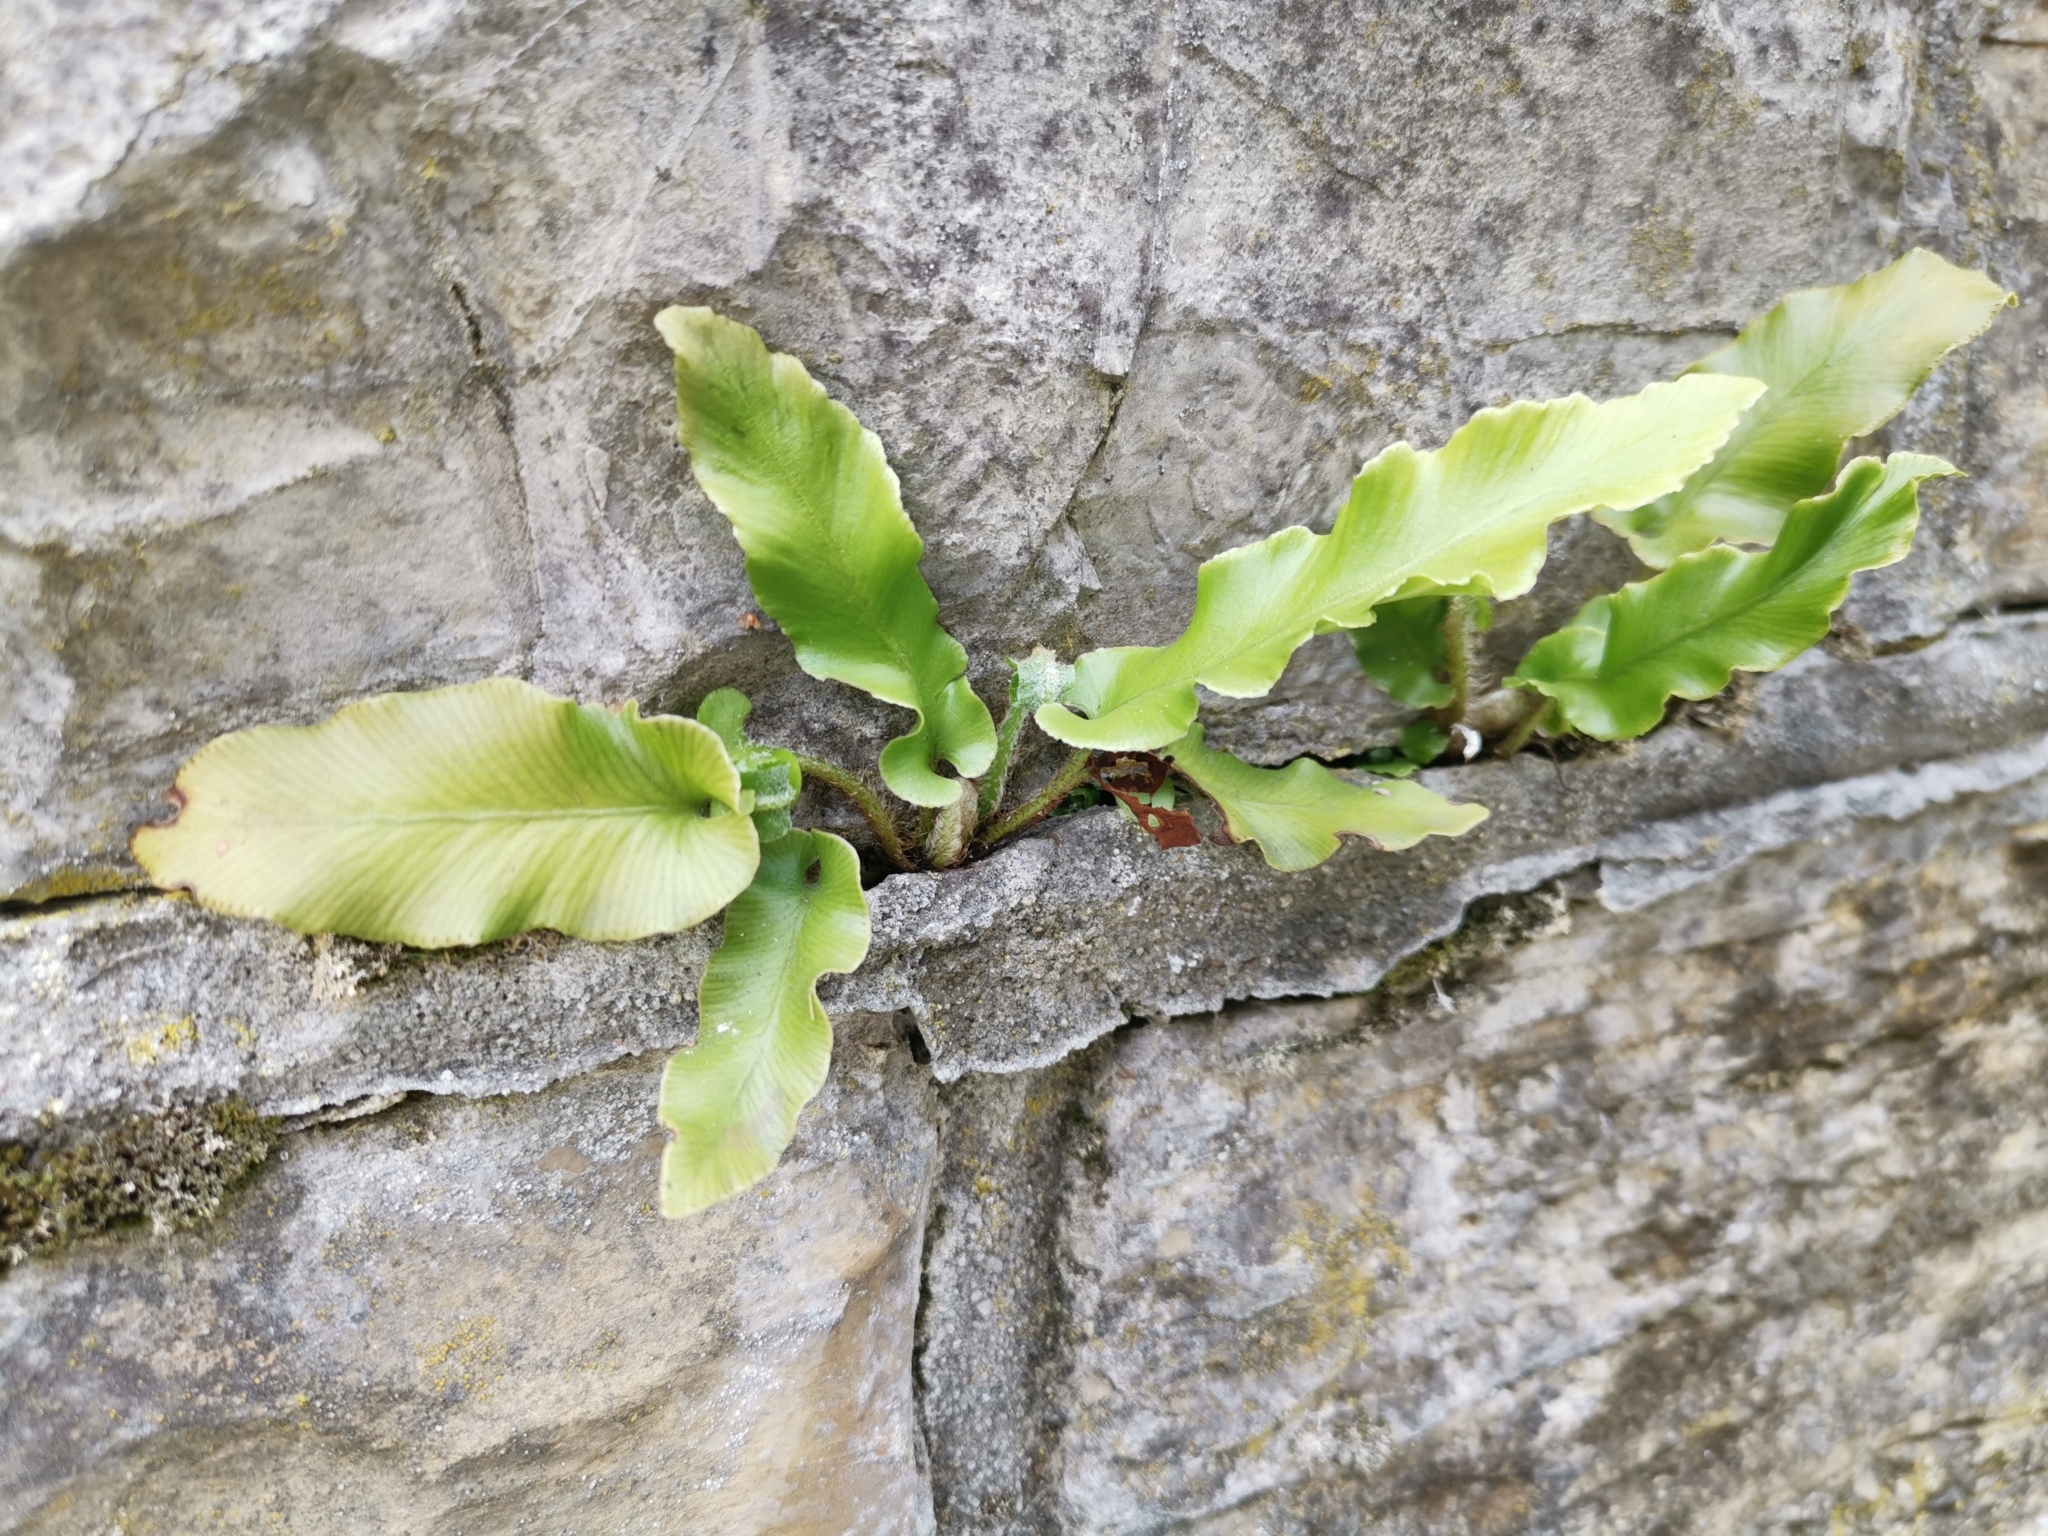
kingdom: Plantae
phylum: Tracheophyta
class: Polypodiopsida
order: Polypodiales
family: Aspleniaceae
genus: Asplenium
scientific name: Asplenium scolopendrium
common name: Hart's-tongue fern
